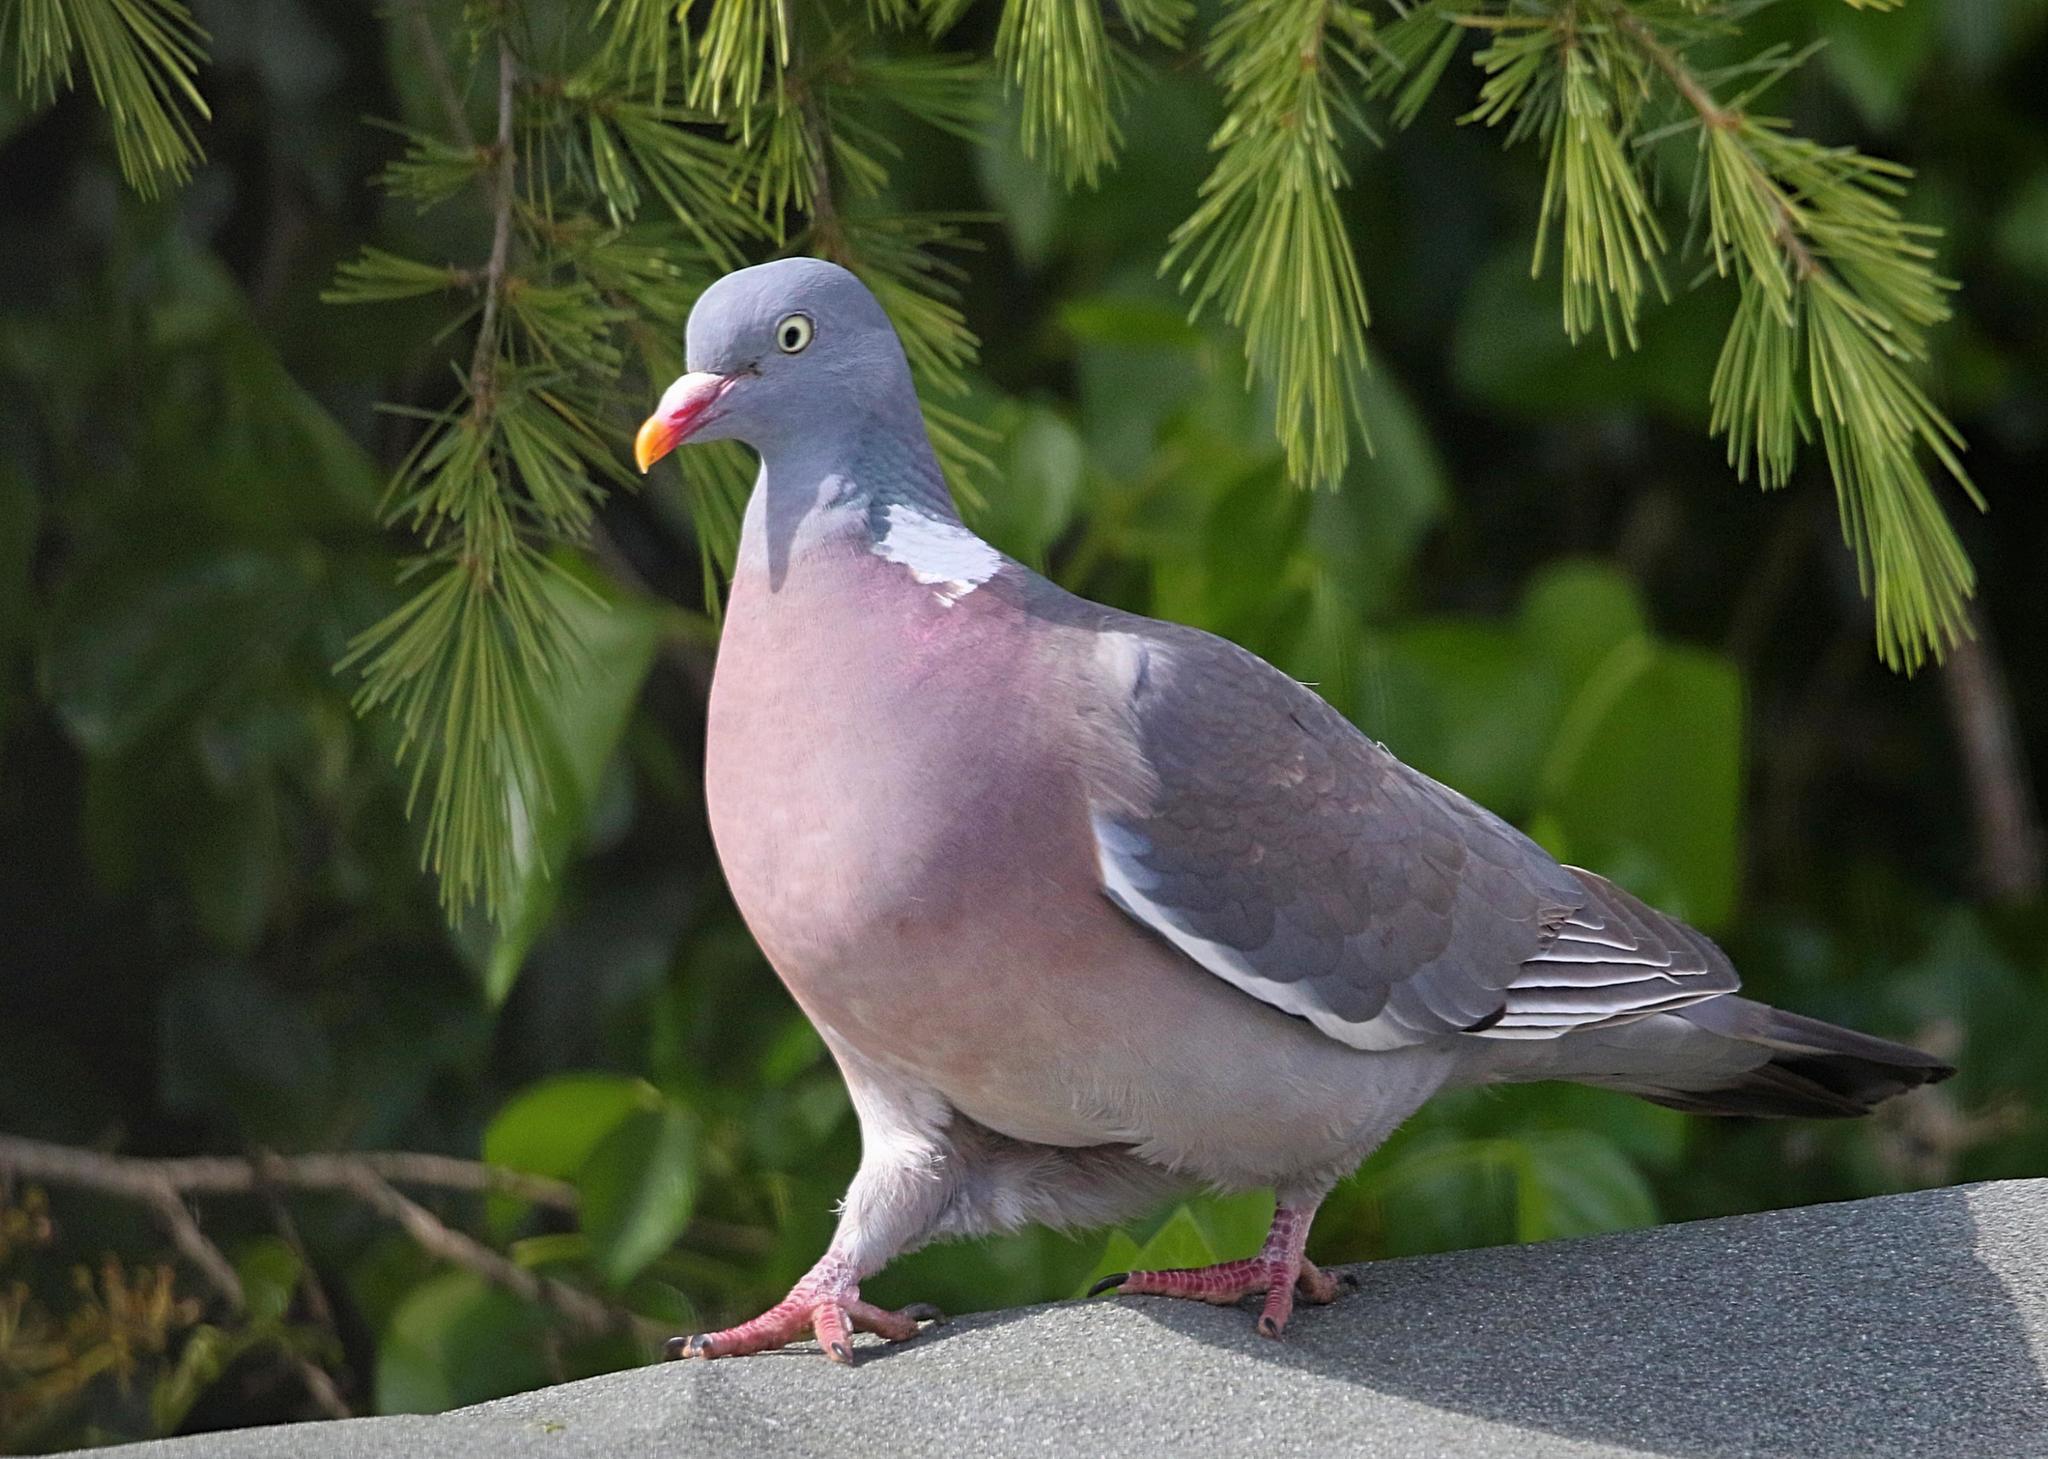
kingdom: Animalia
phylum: Chordata
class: Aves
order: Columbiformes
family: Columbidae
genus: Columba
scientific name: Columba palumbus
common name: Common wood pigeon
